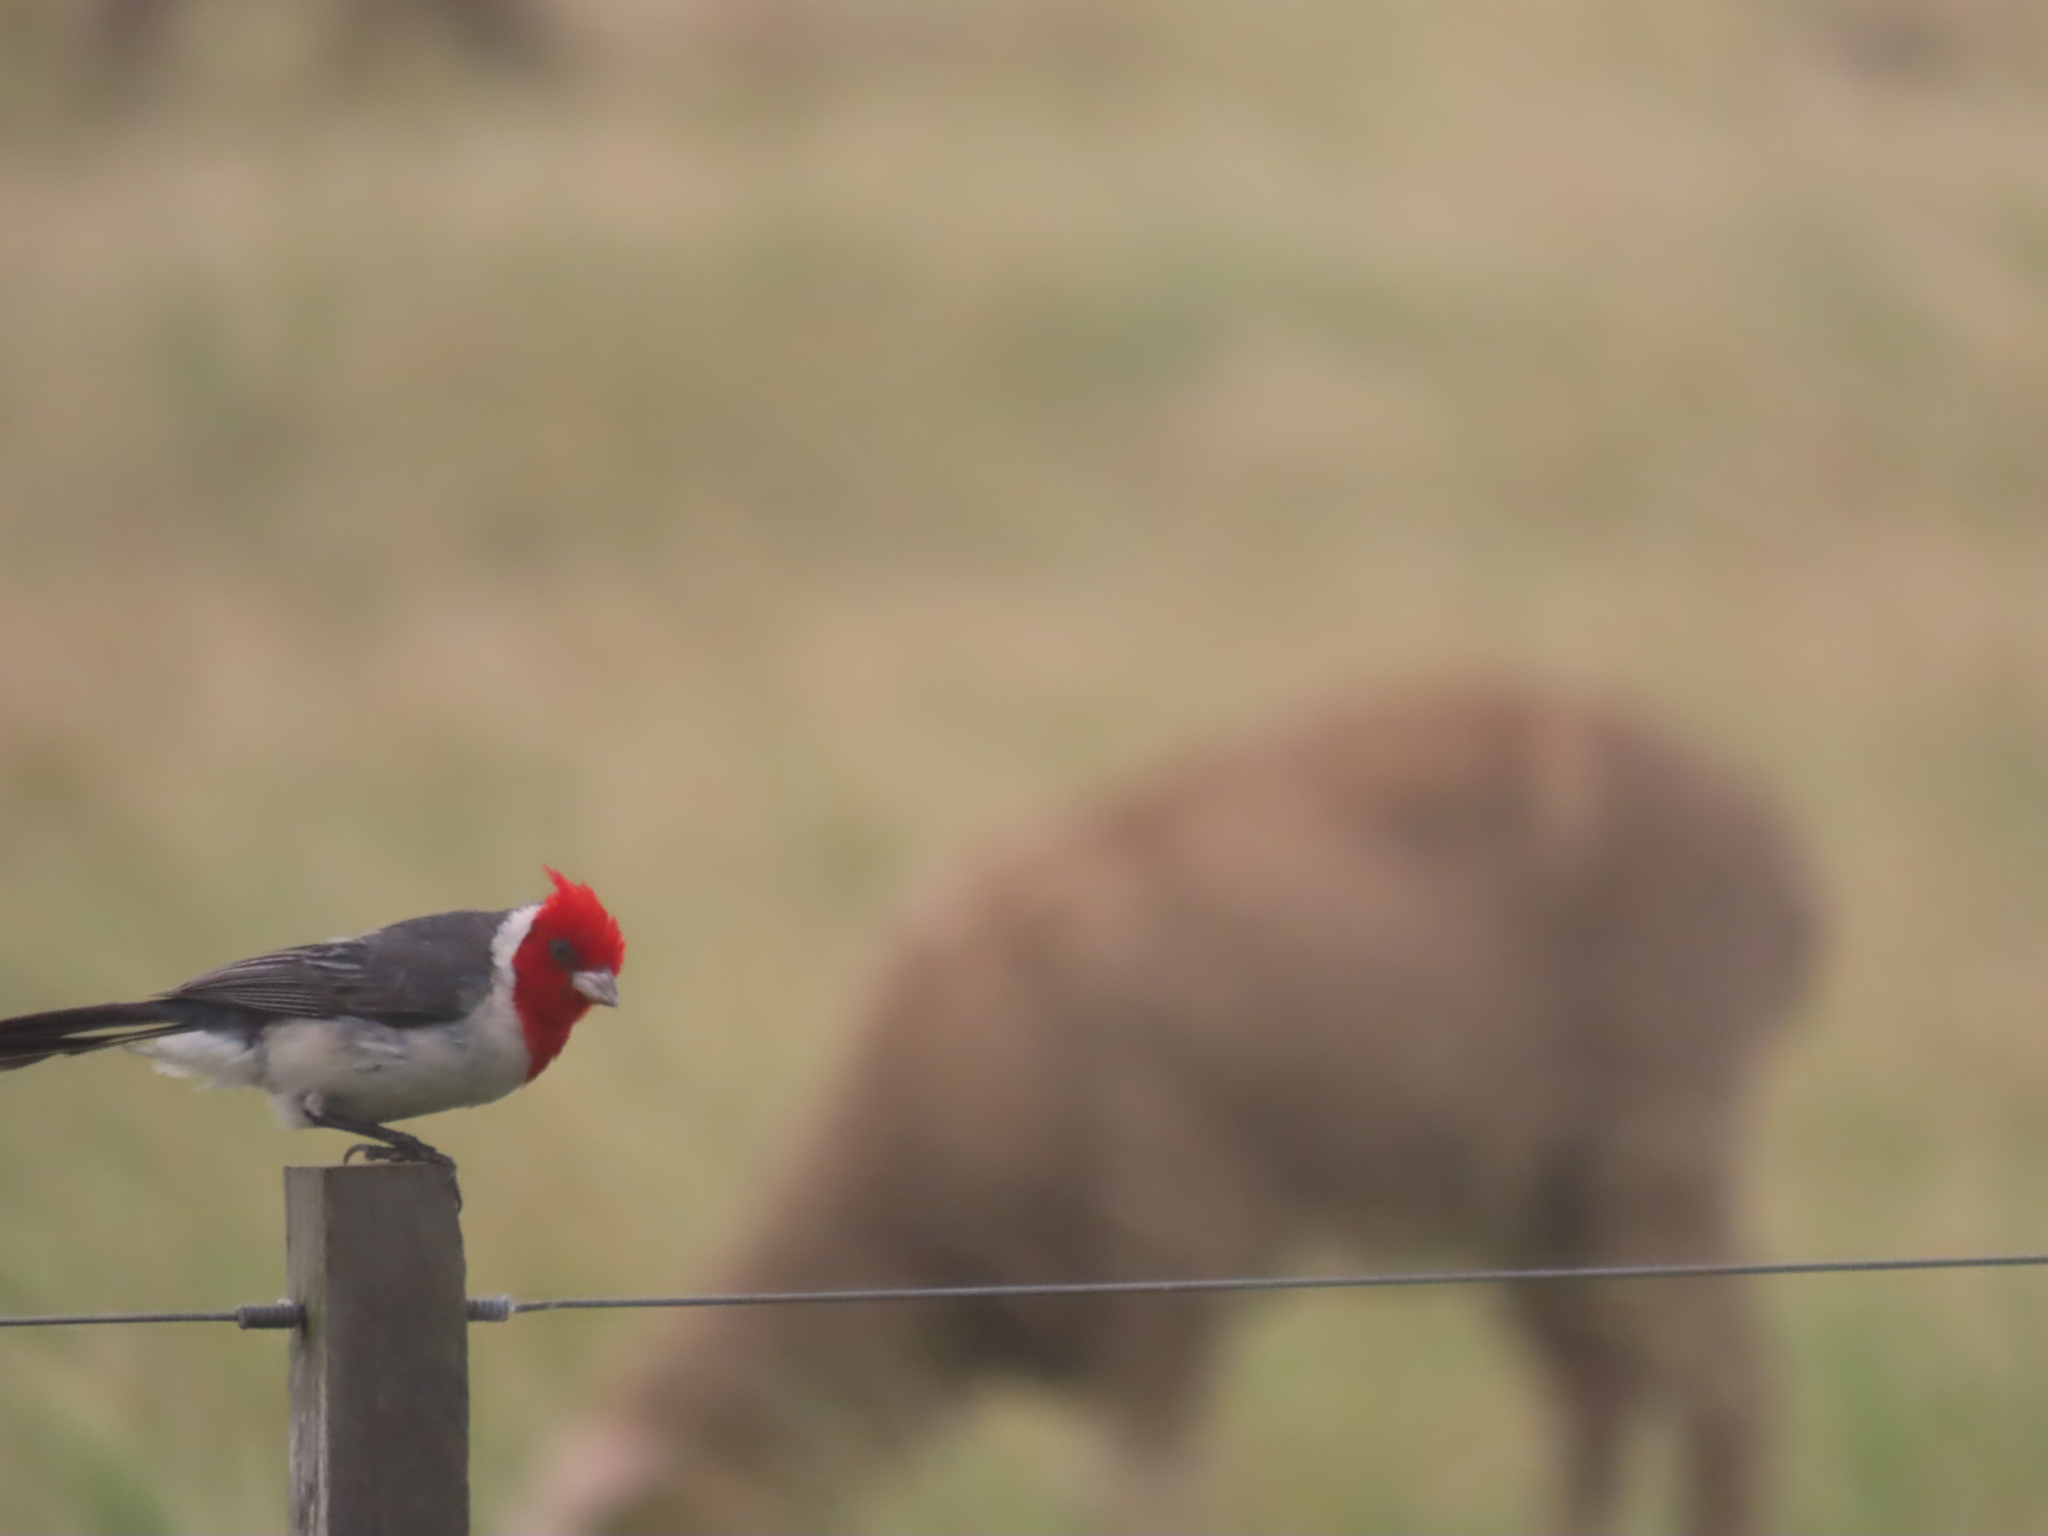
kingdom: Animalia
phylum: Chordata
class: Aves
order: Passeriformes
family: Thraupidae
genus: Paroaria
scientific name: Paroaria coronata
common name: Red-crested cardinal
